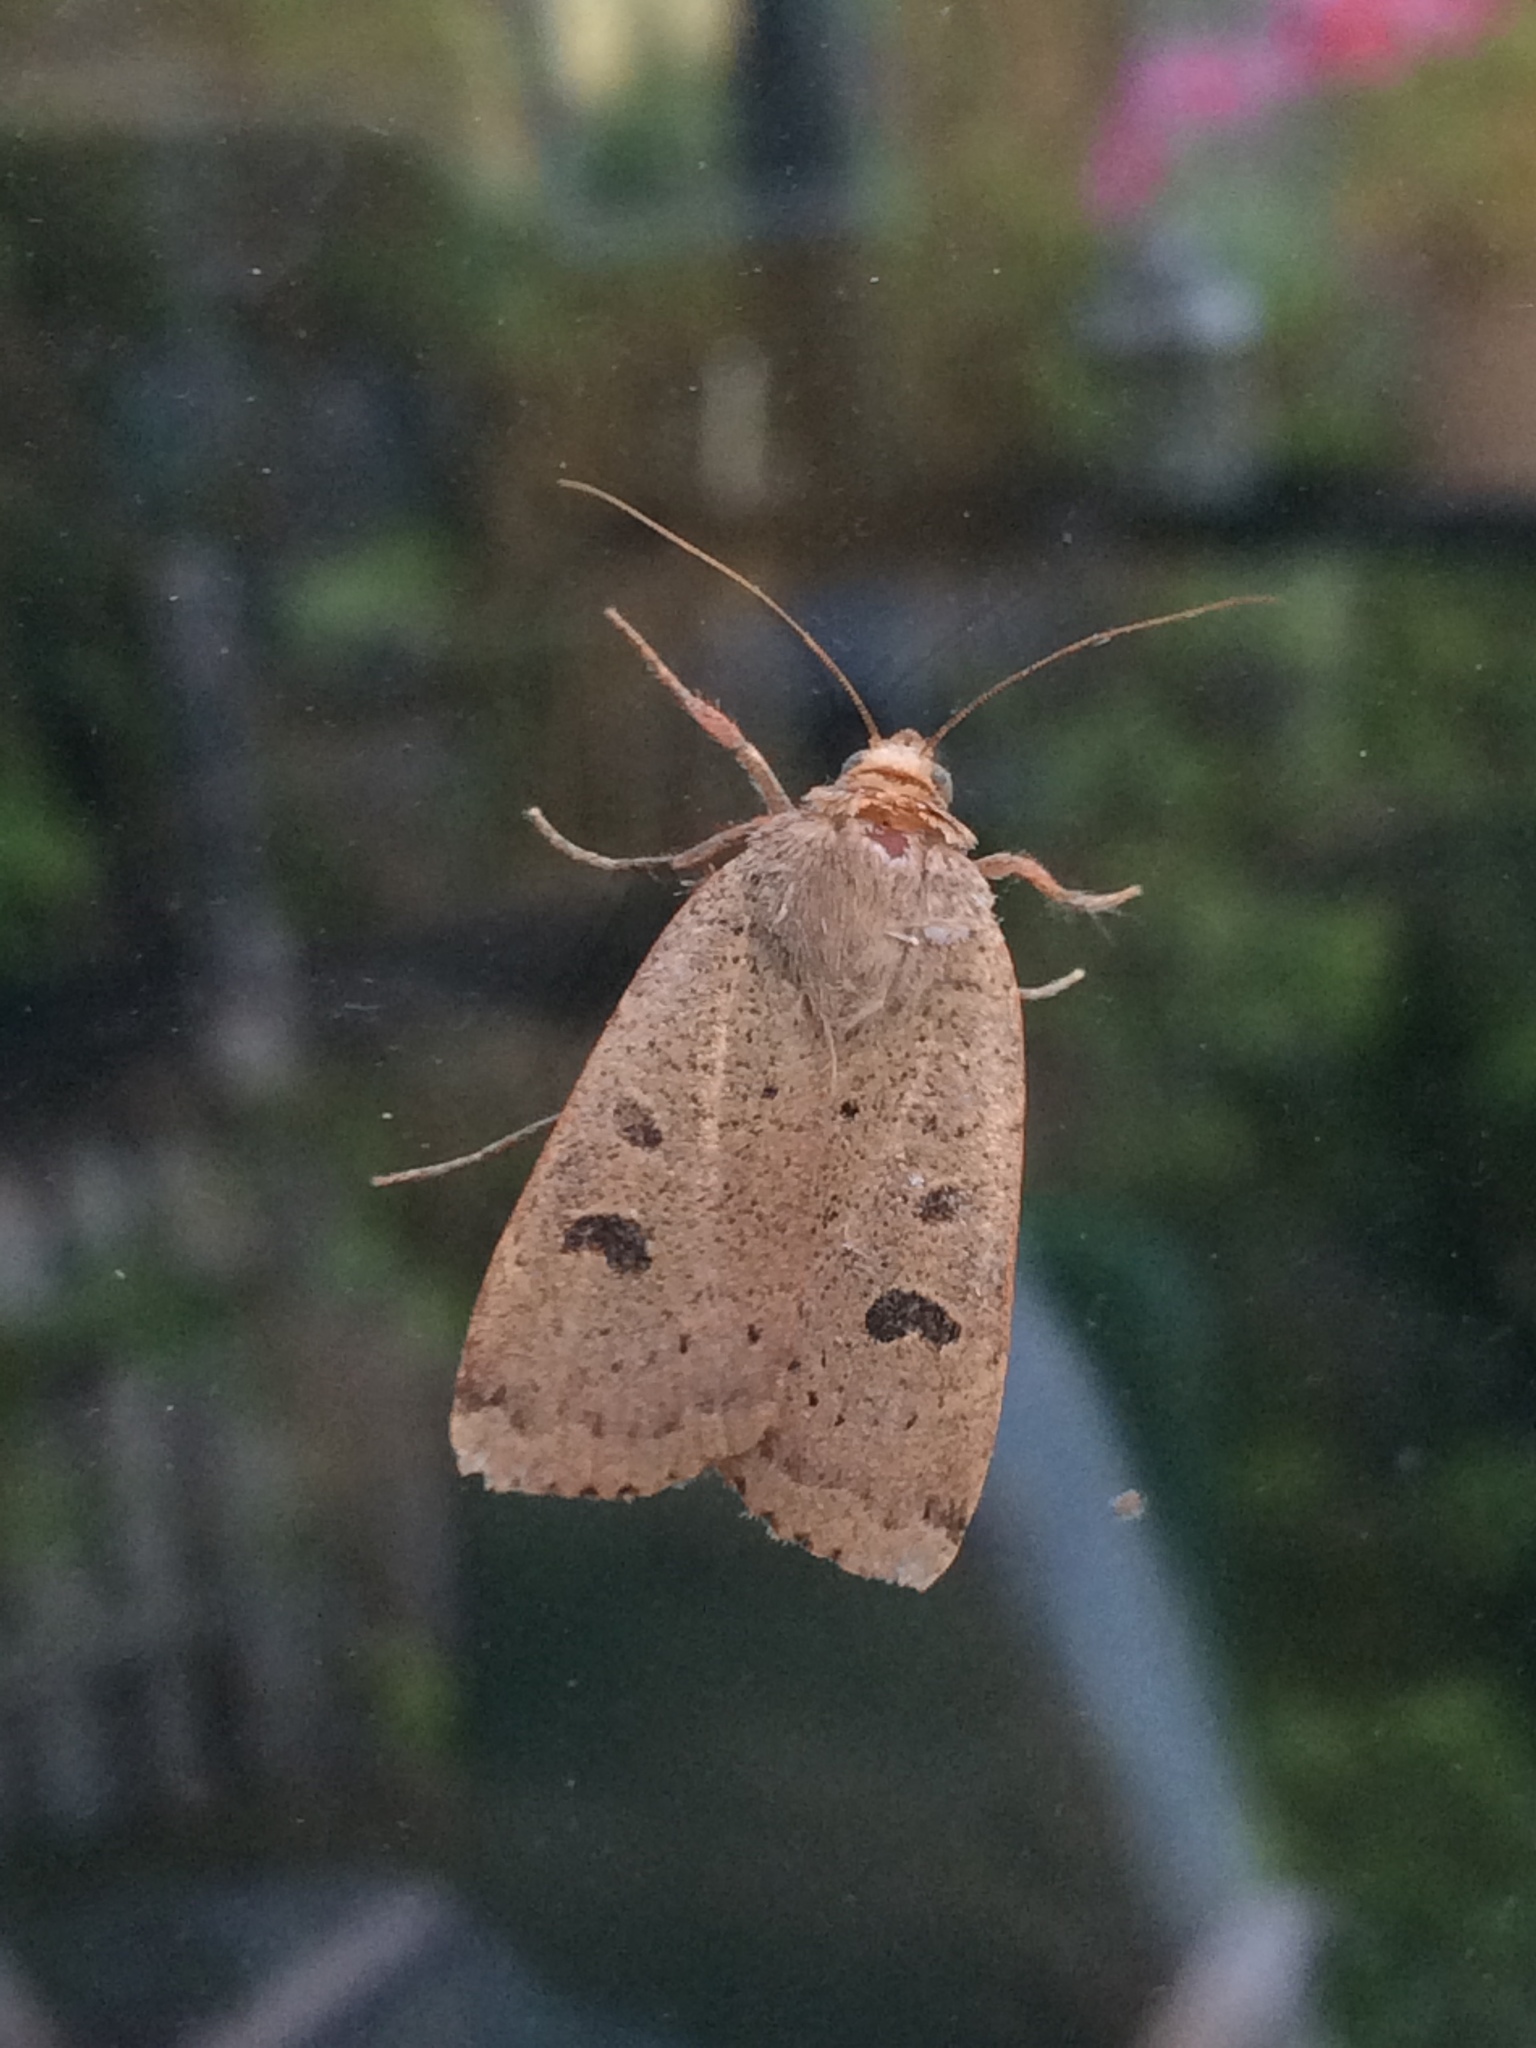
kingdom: Animalia
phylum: Arthropoda
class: Insecta
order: Lepidoptera
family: Noctuidae
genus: Noctua
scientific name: Noctua comes
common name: Lesser yellow underwing
